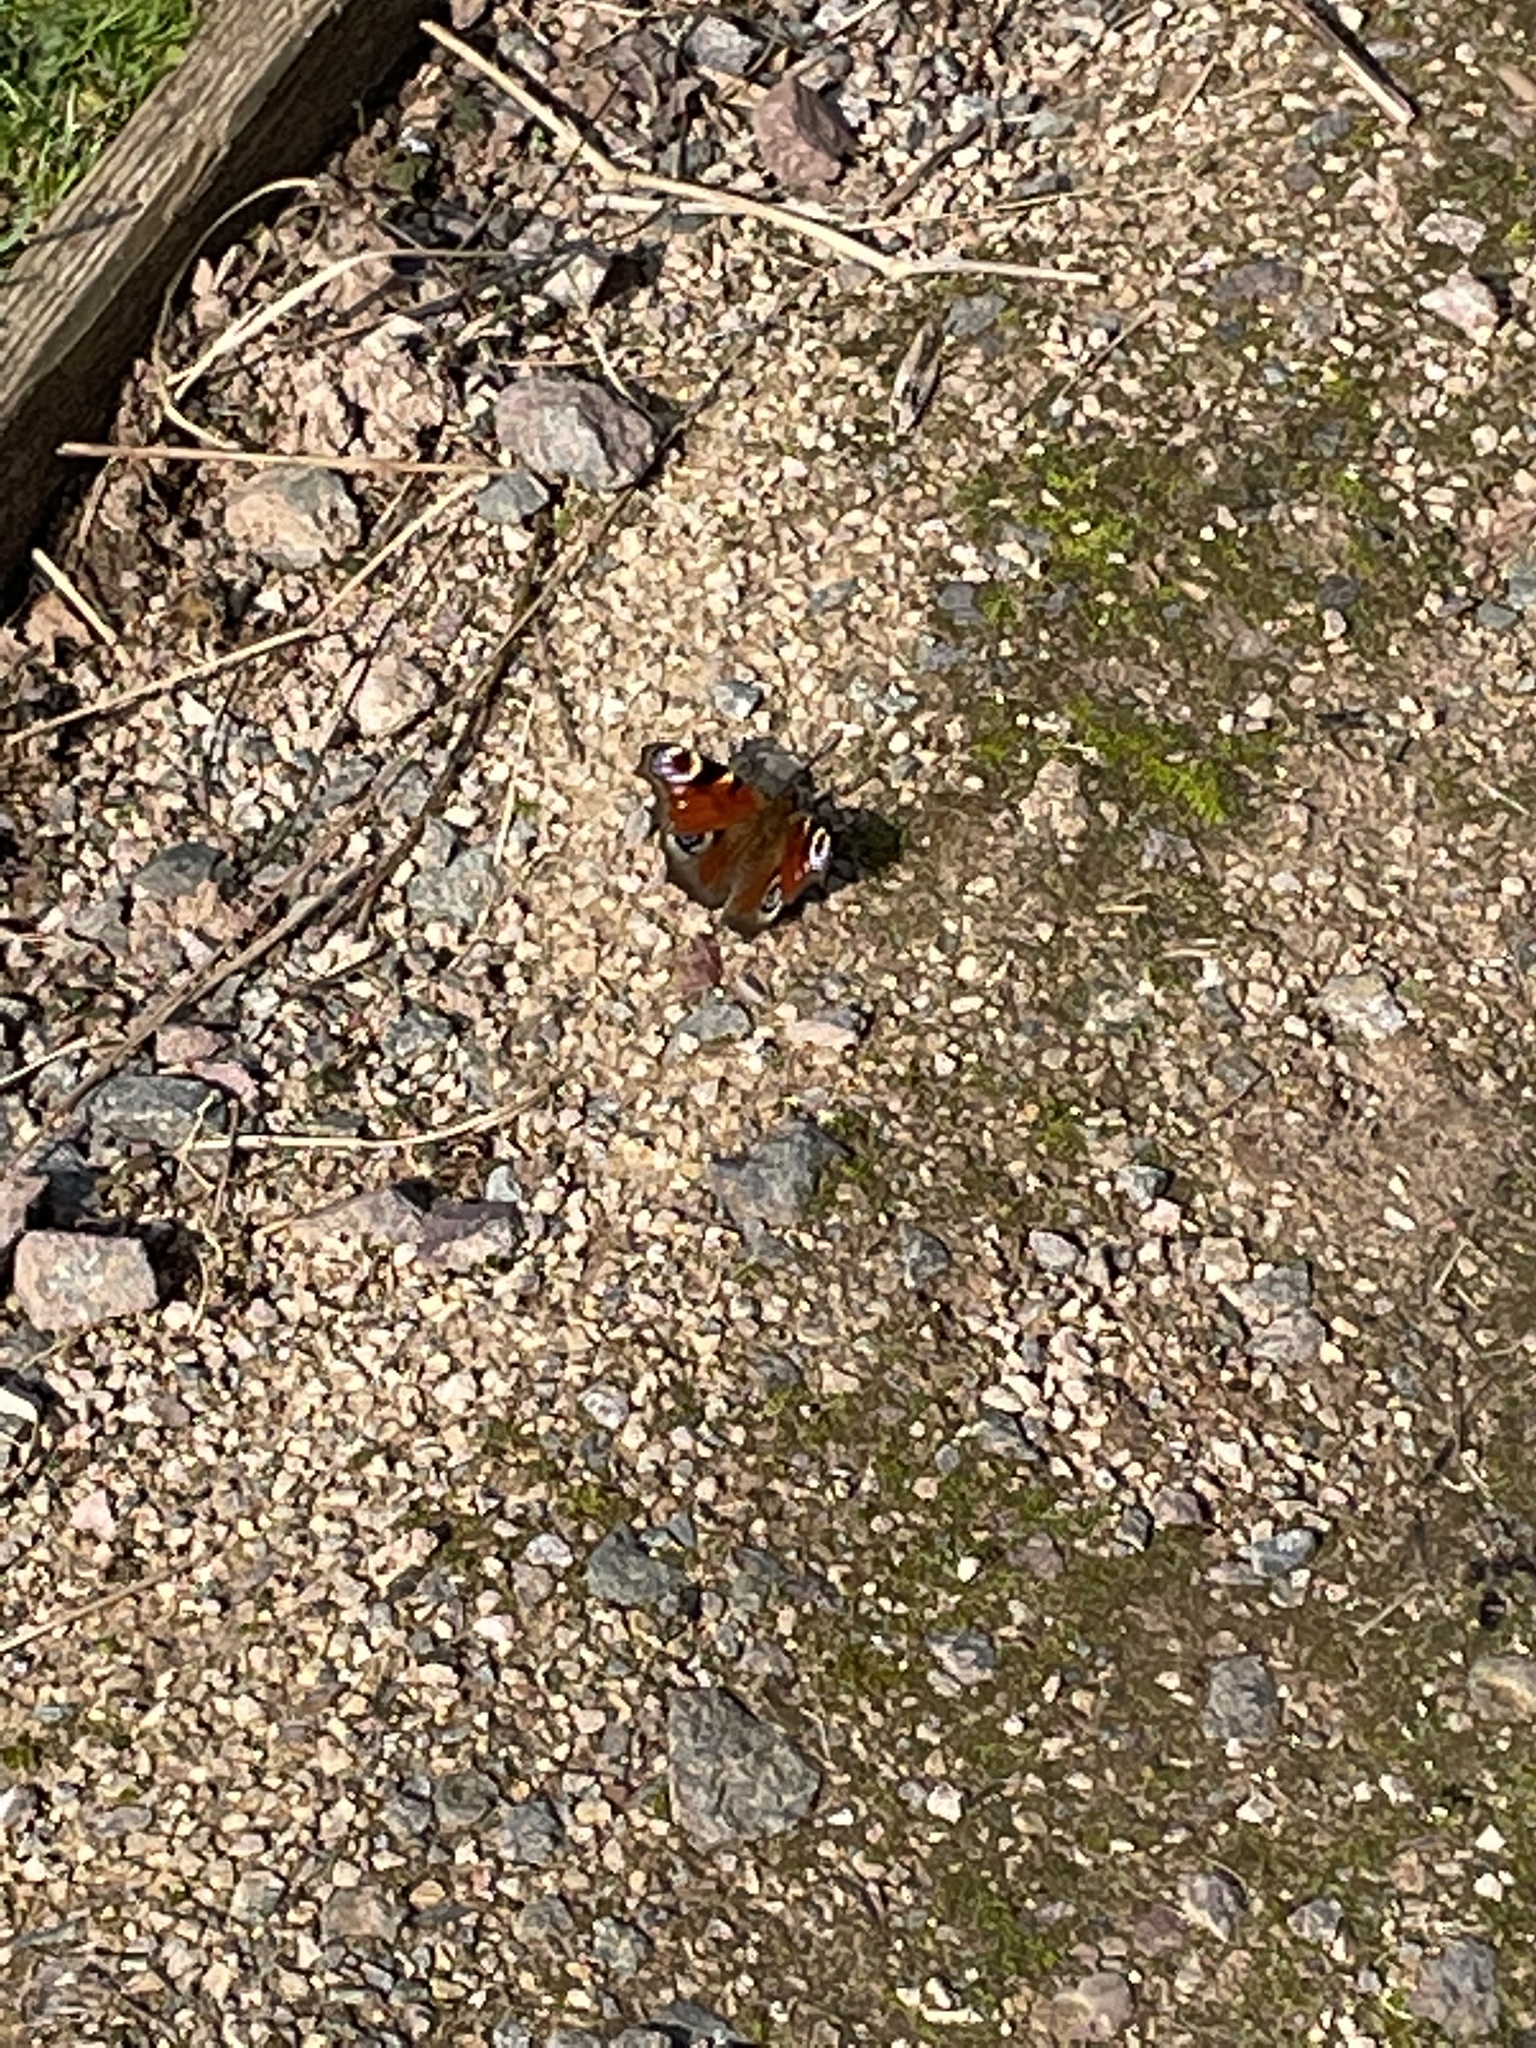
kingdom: Animalia
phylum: Arthropoda
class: Insecta
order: Lepidoptera
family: Nymphalidae
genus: Aglais
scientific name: Aglais io
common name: Peacock
